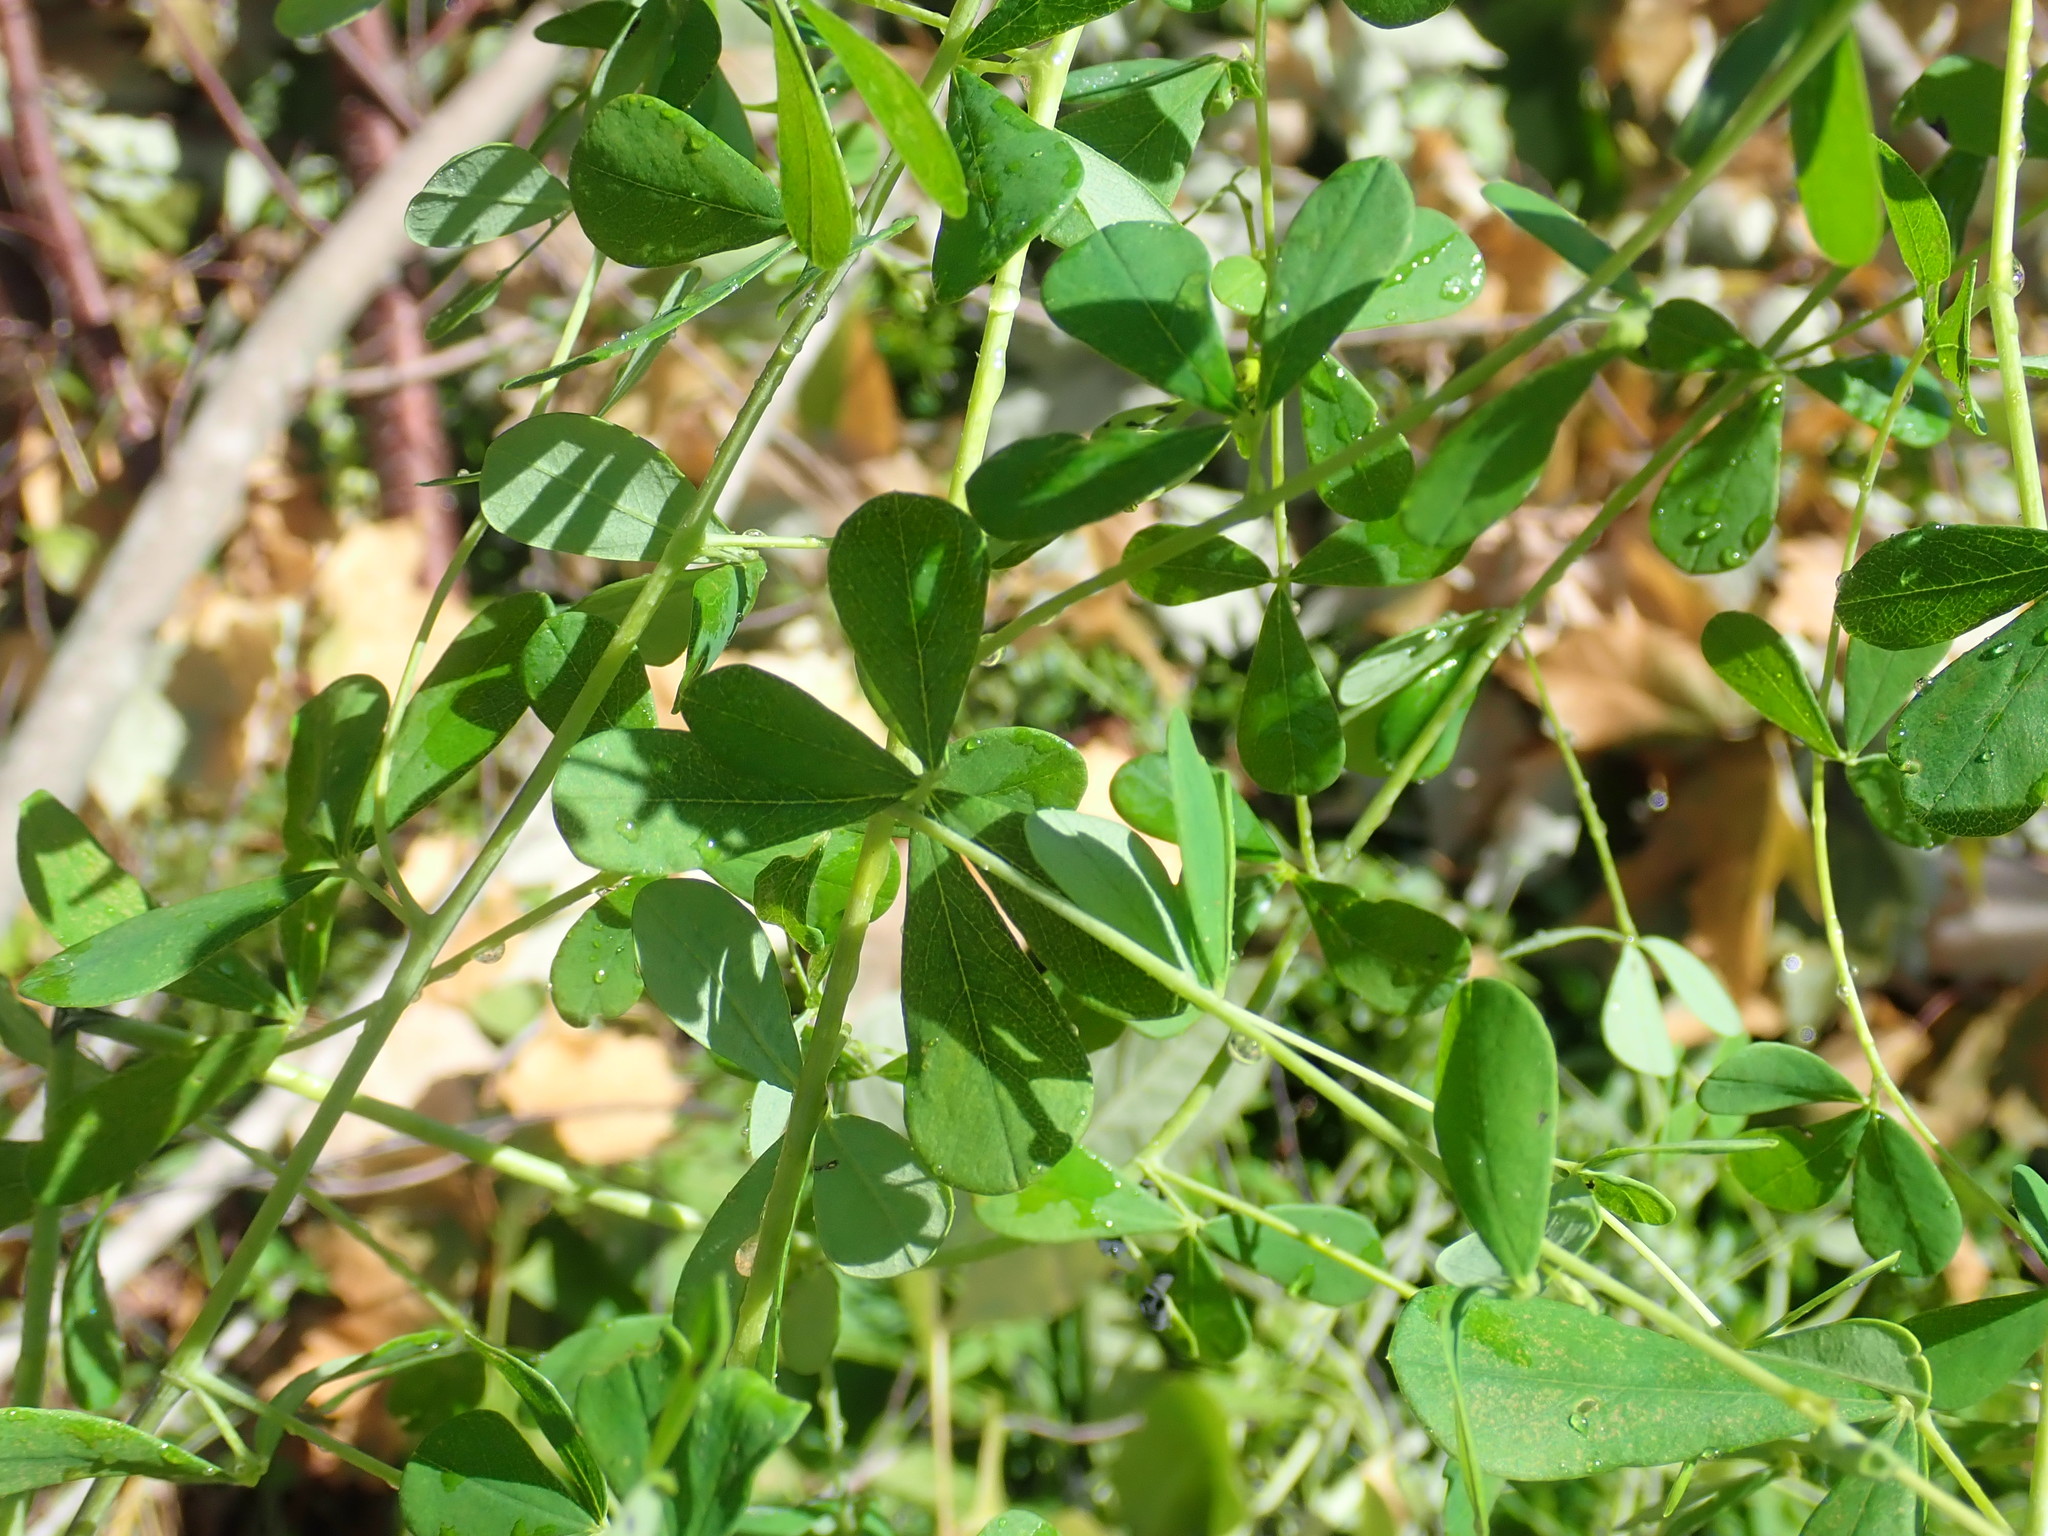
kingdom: Plantae
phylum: Tracheophyta
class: Magnoliopsida
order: Fabales
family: Fabaceae
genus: Baptisia
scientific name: Baptisia tinctoria
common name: Wild indigo
